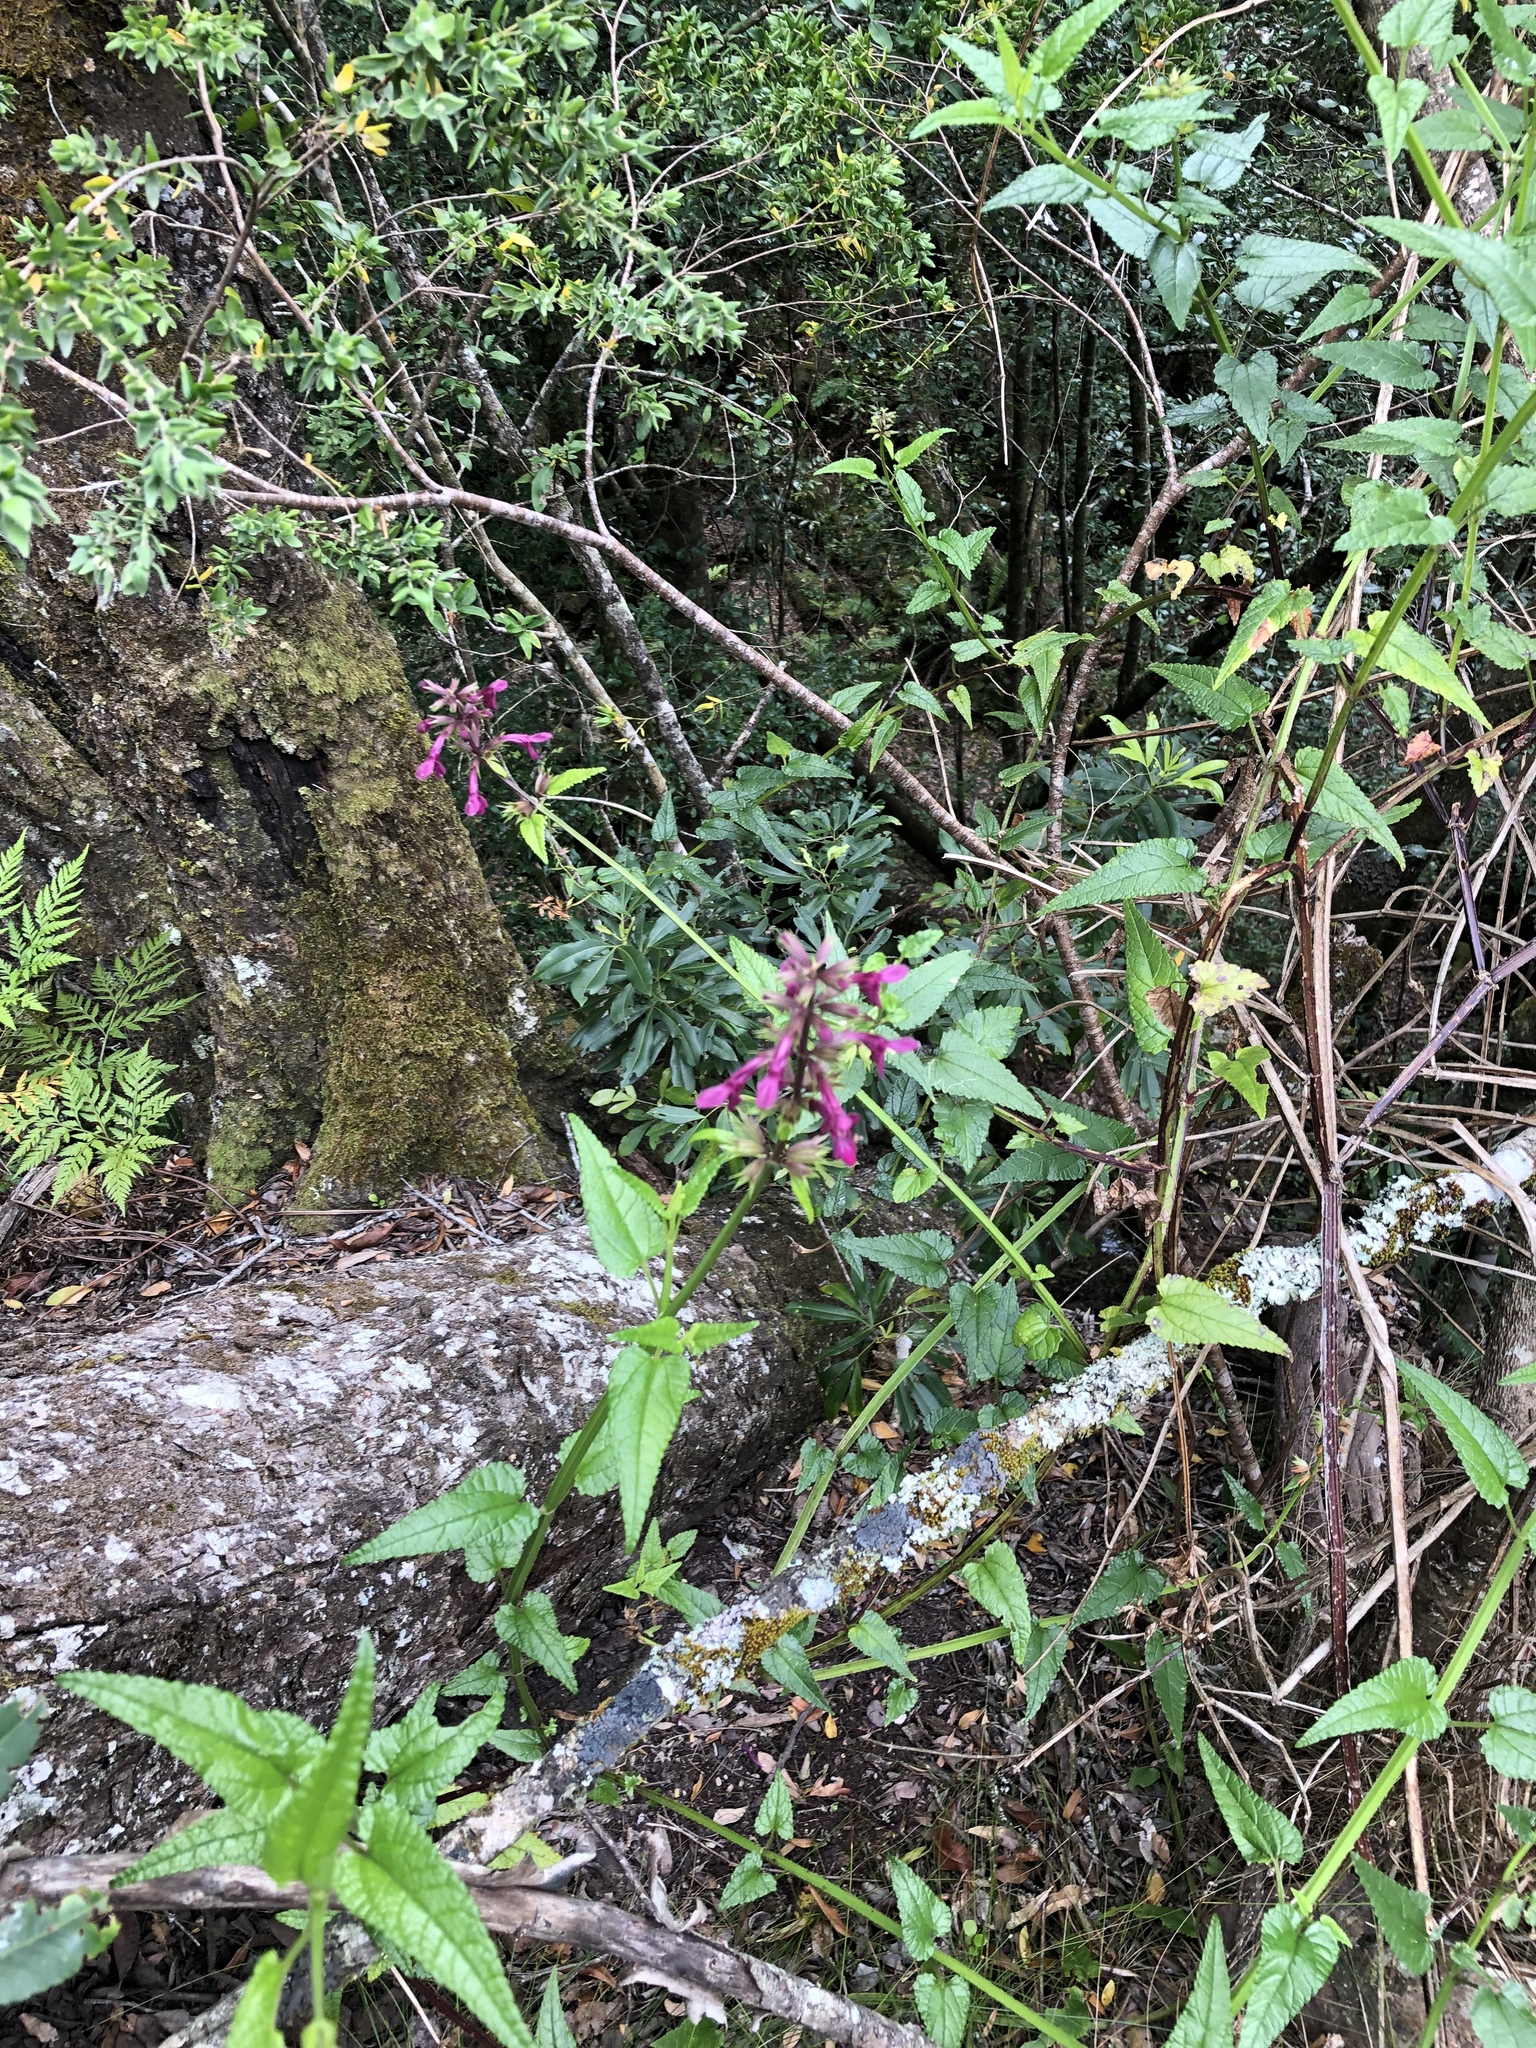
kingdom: Plantae
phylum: Tracheophyta
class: Magnoliopsida
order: Lamiales
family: Lamiaceae
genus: Stachys
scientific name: Stachys thunbergii
